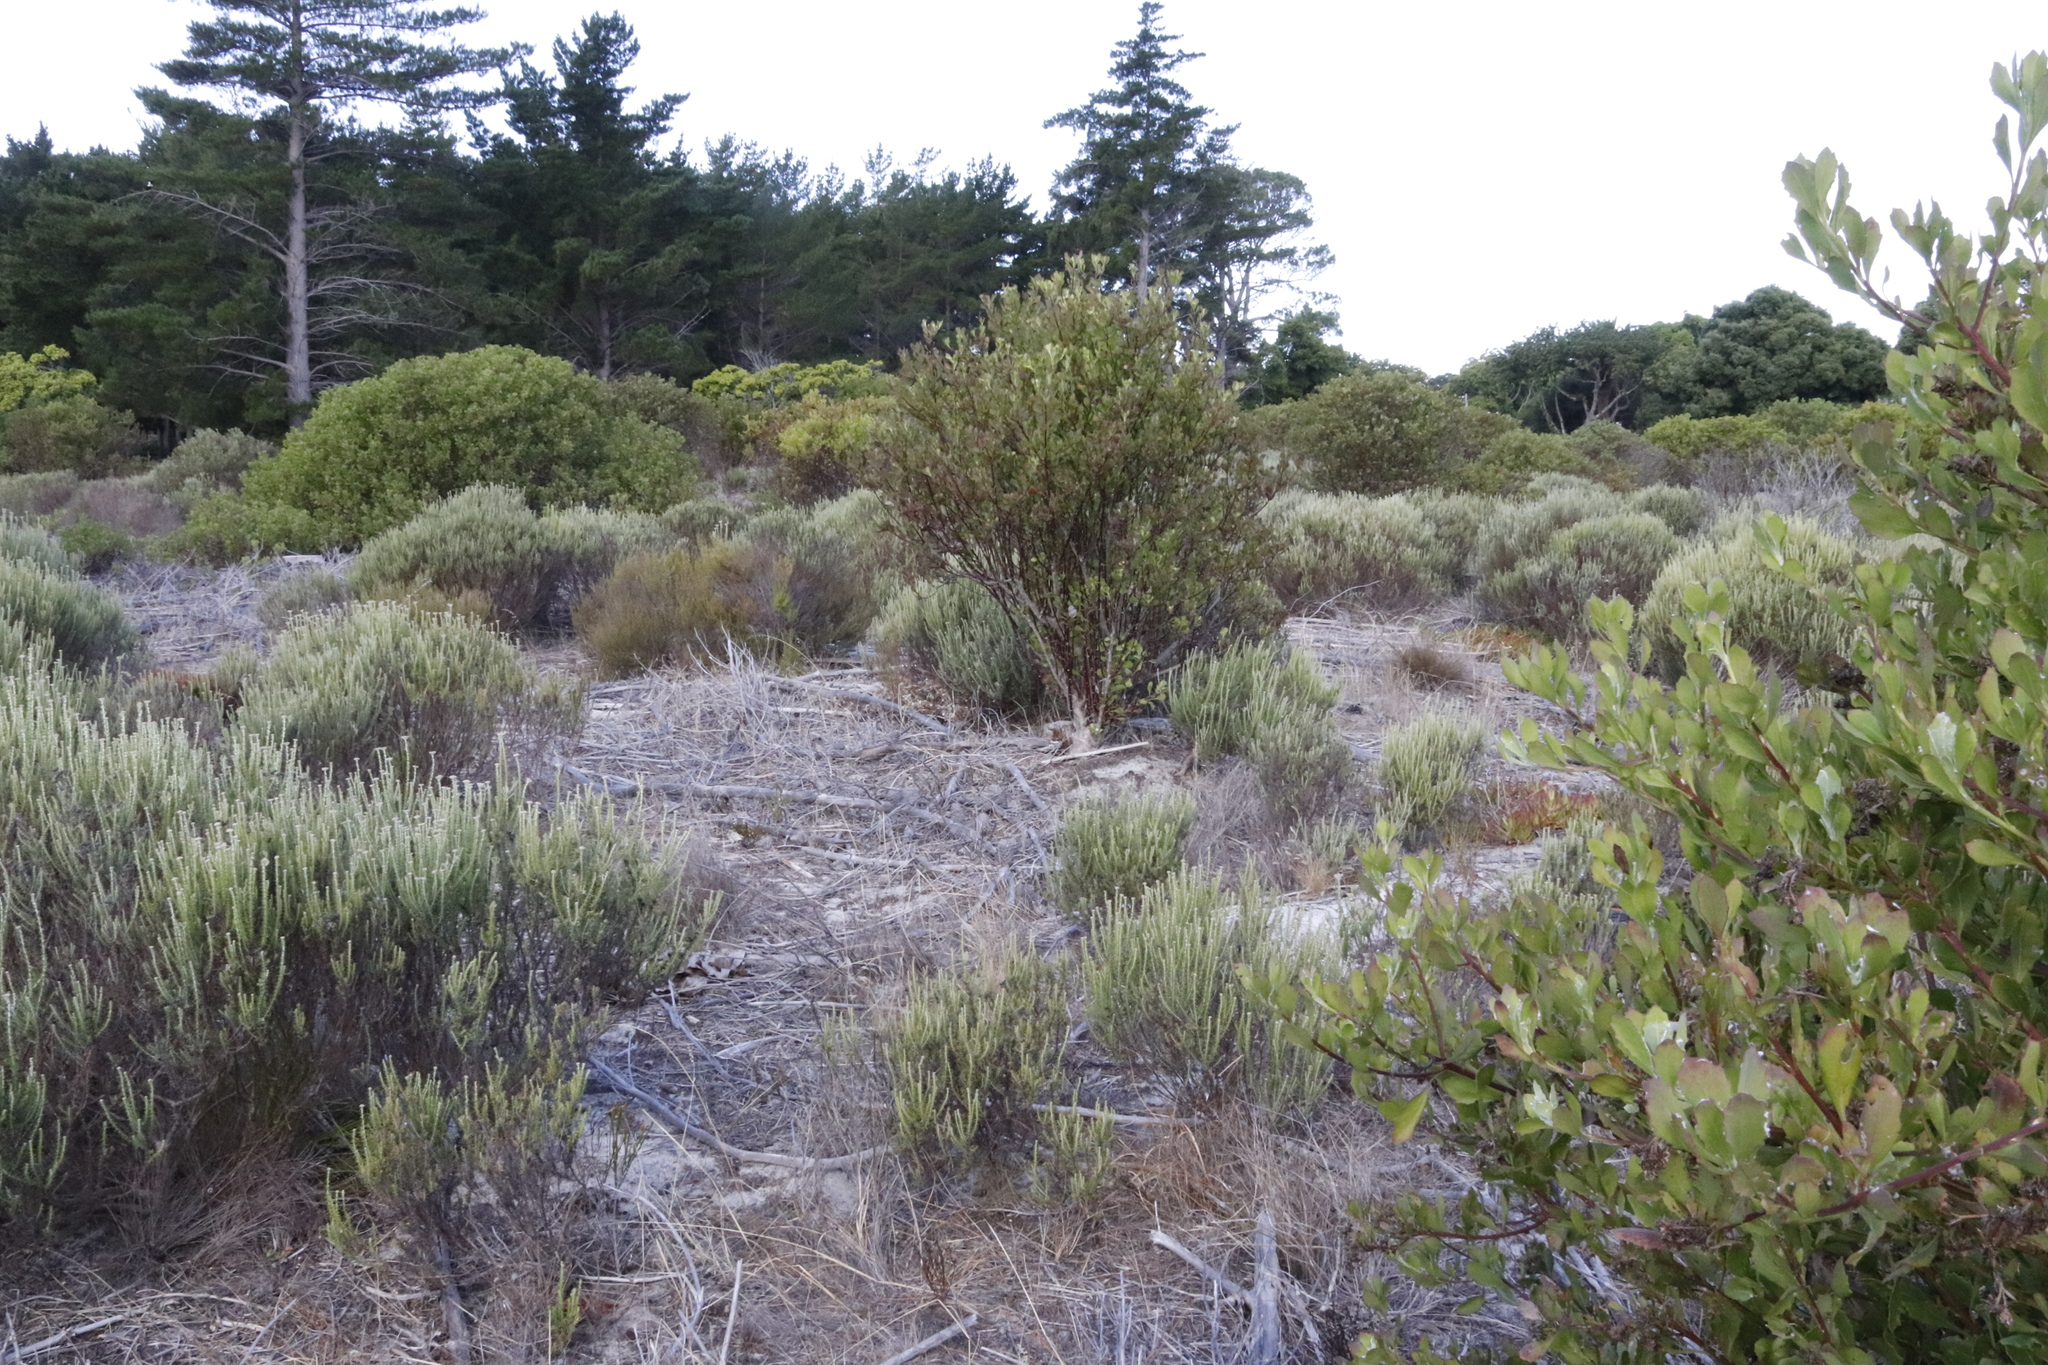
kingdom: Plantae
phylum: Tracheophyta
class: Magnoliopsida
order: Asterales
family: Asteraceae
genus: Osteospermum
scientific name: Osteospermum moniliferum
